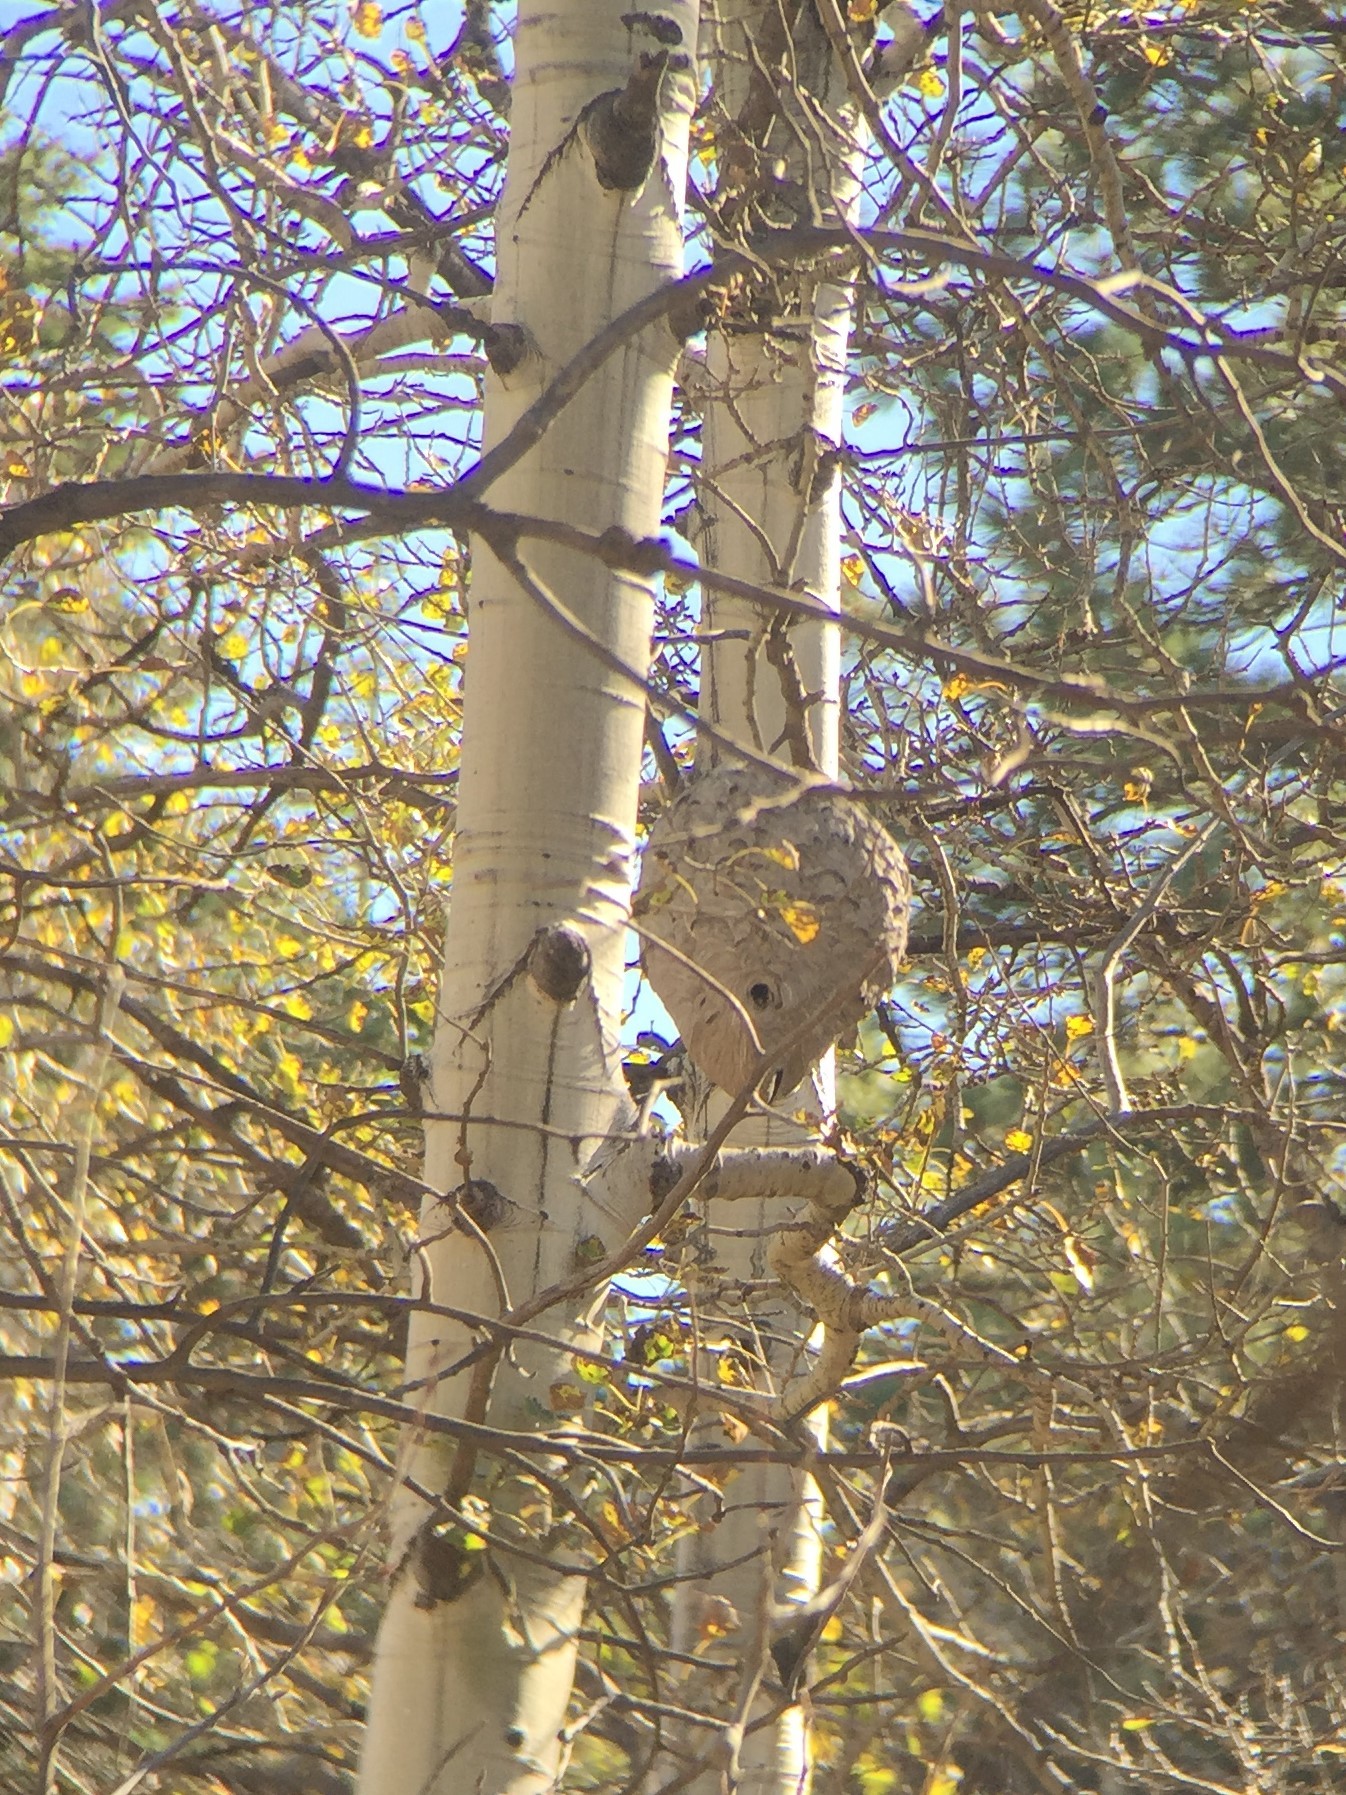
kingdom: Animalia
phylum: Arthropoda
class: Insecta
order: Hymenoptera
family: Vespidae
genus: Dolichovespula
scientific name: Dolichovespula
